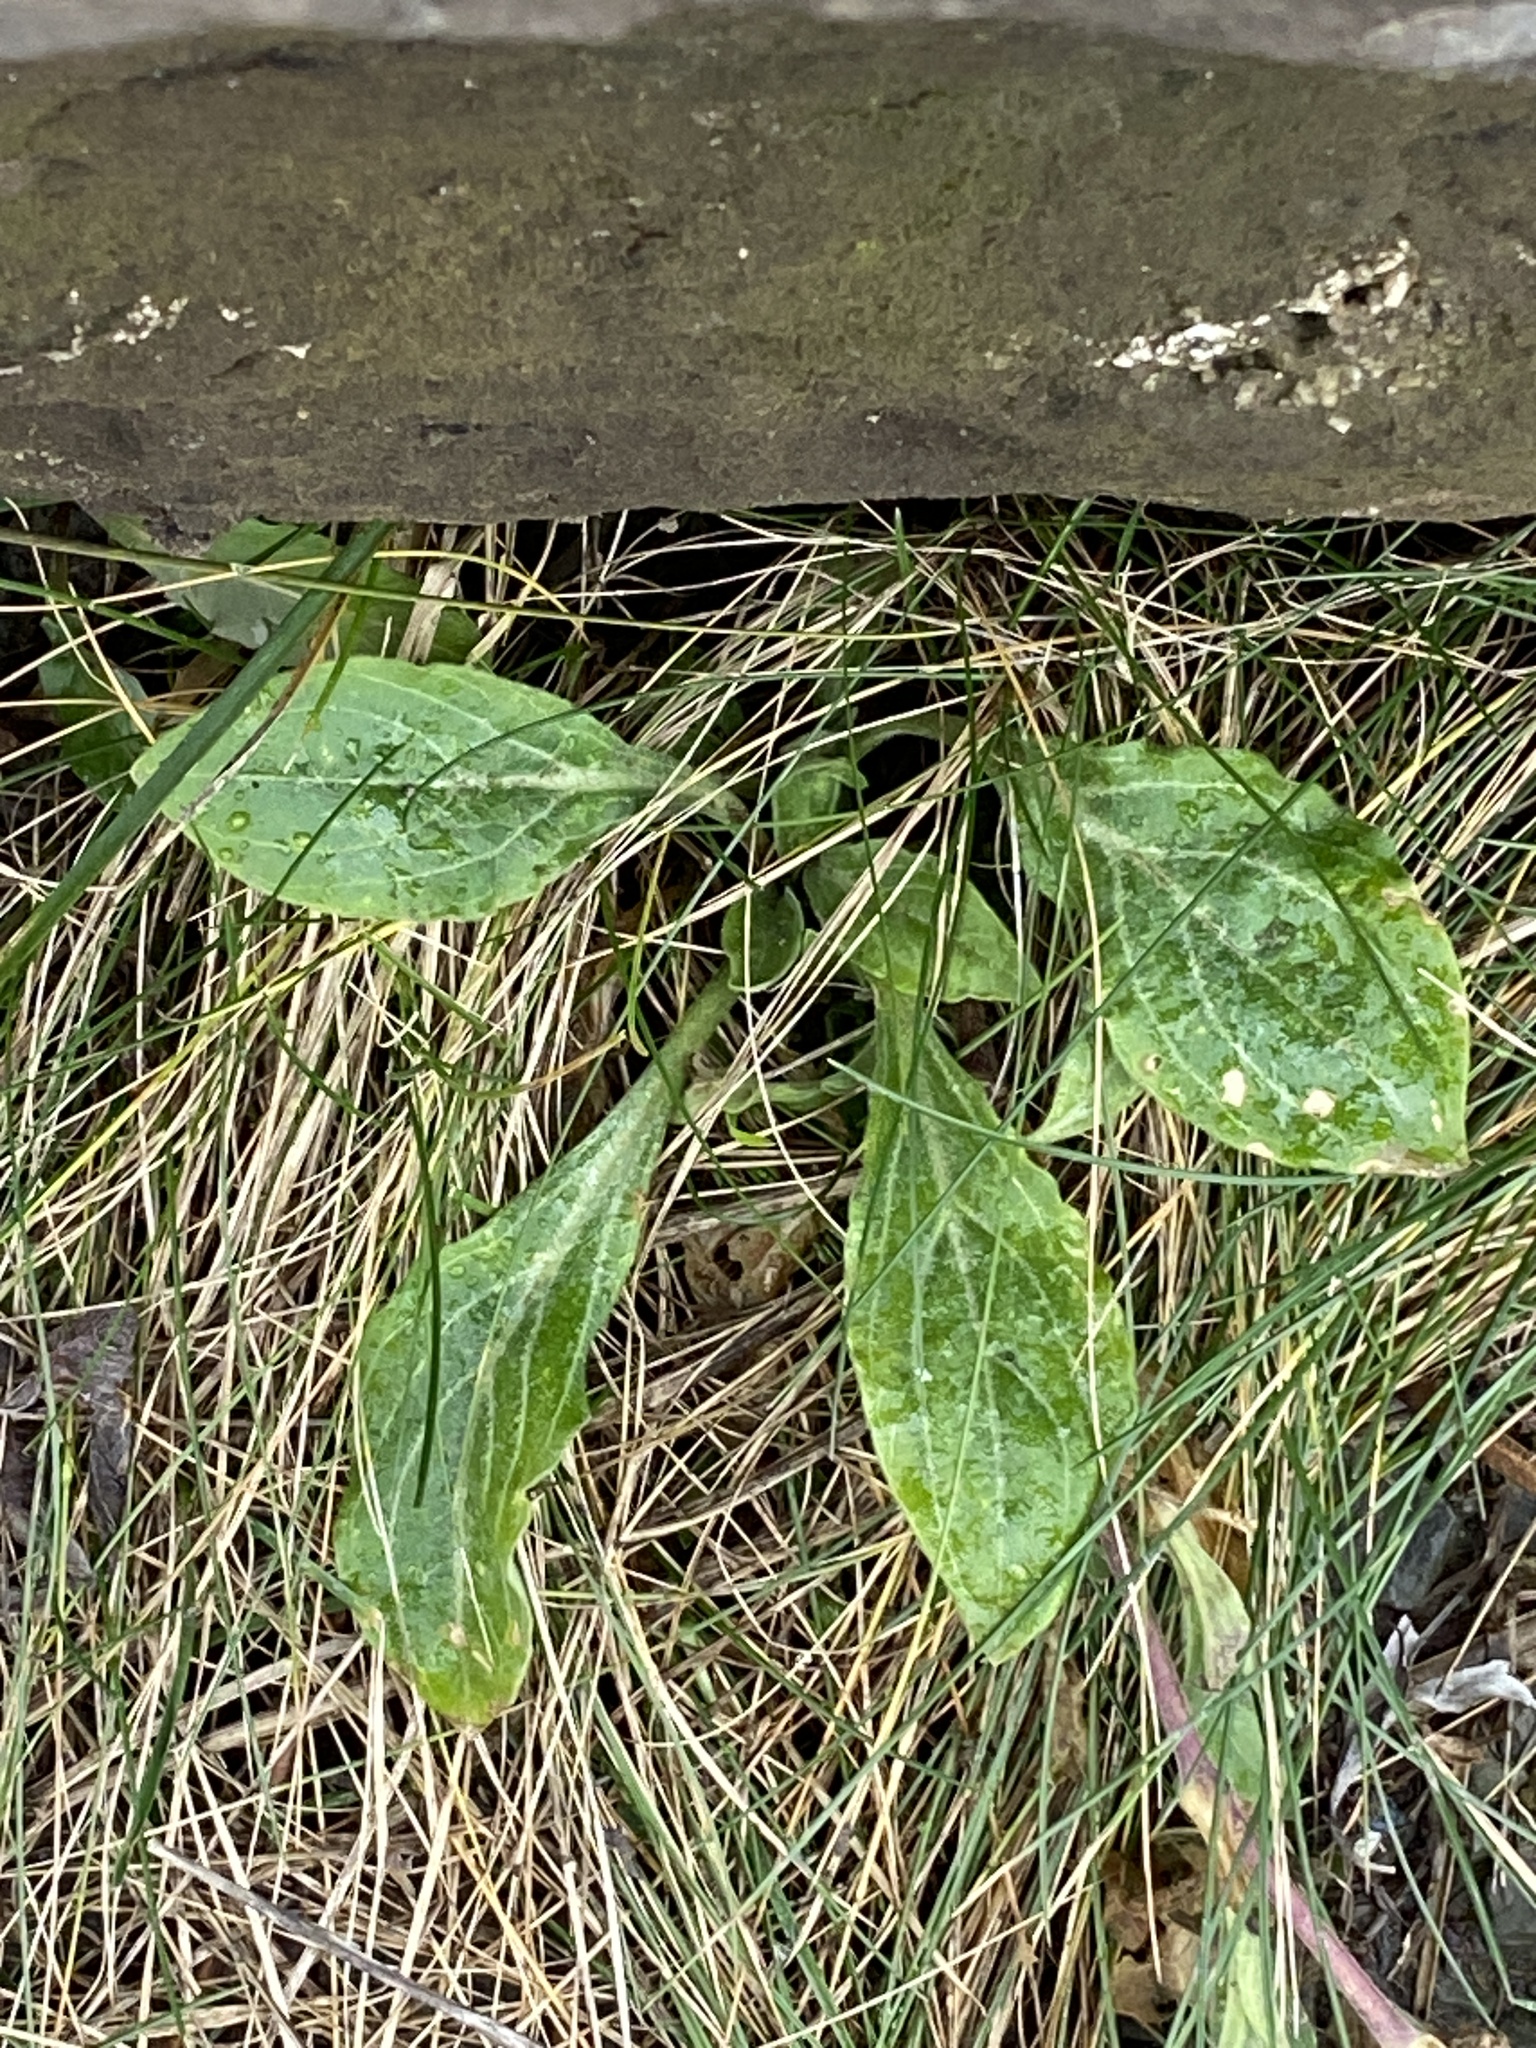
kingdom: Plantae
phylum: Tracheophyta
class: Magnoliopsida
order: Caryophyllales
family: Caryophyllaceae
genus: Silene
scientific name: Silene latifolia
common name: White campion
